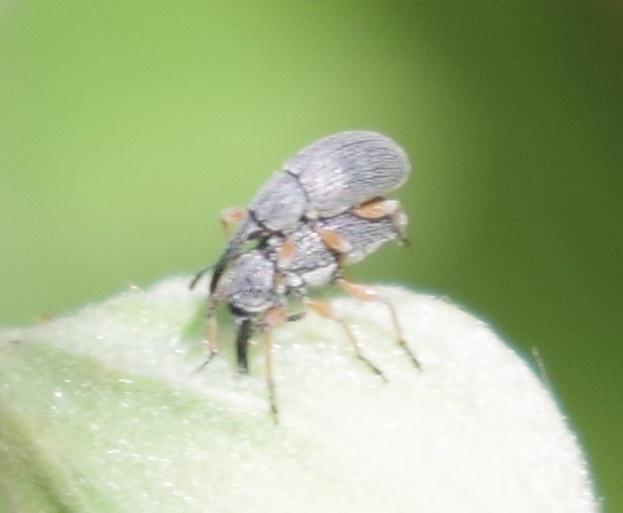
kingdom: Animalia
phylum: Arthropoda
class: Insecta
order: Coleoptera
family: Brentidae
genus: Rhopalapion
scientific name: Rhopalapion longirostre
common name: Hollyhock weevil
